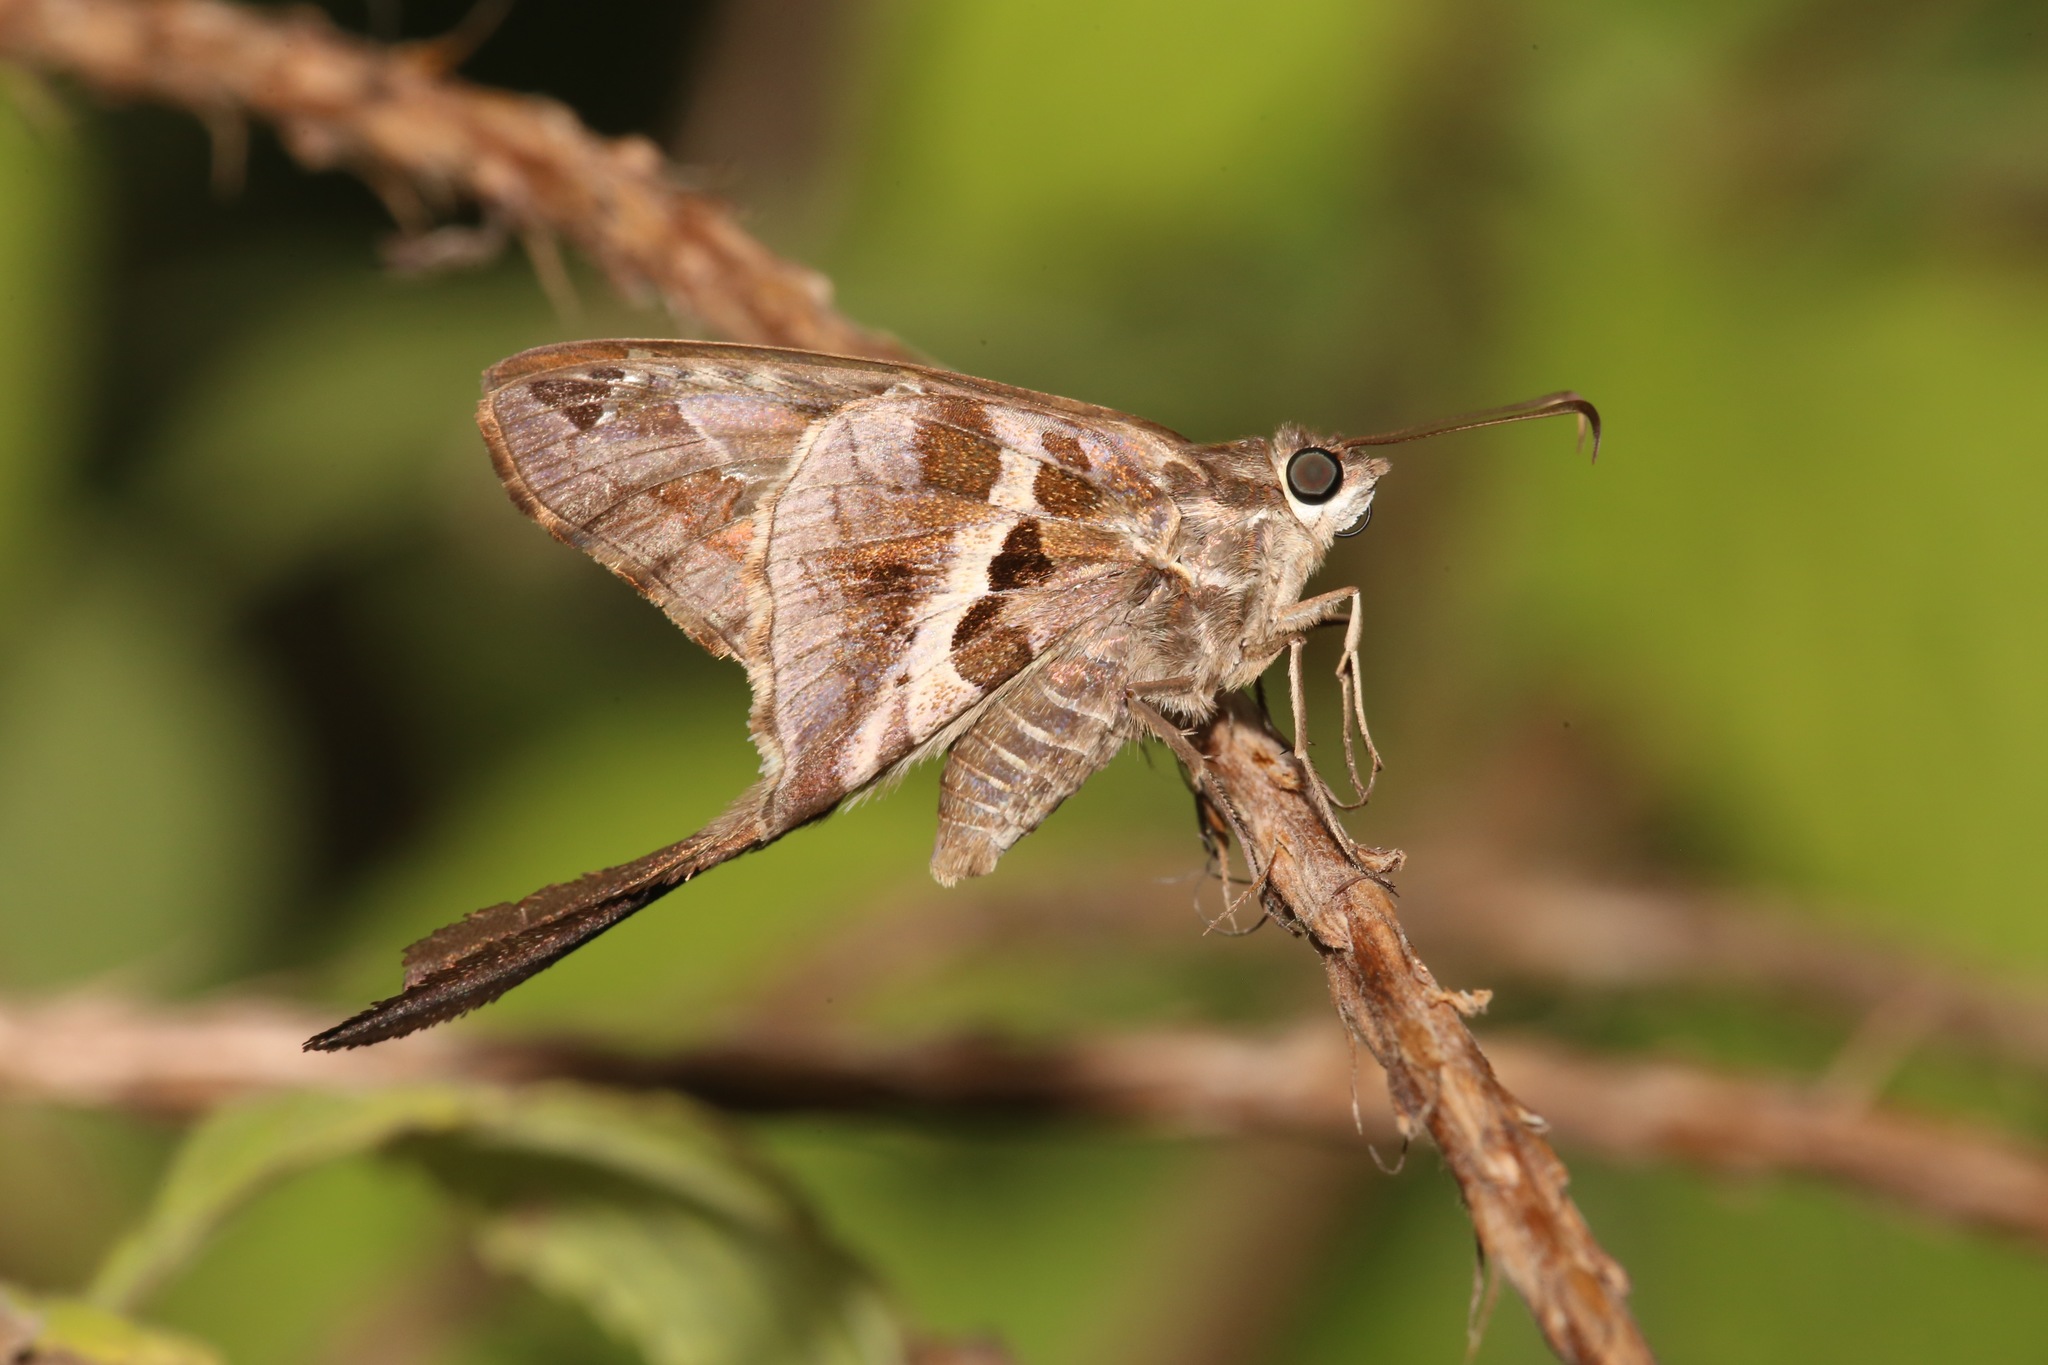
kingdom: Animalia
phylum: Arthropoda
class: Insecta
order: Lepidoptera
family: Hesperiidae
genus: Chioides
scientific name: Chioides catillus
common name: Silverbanded skipper
